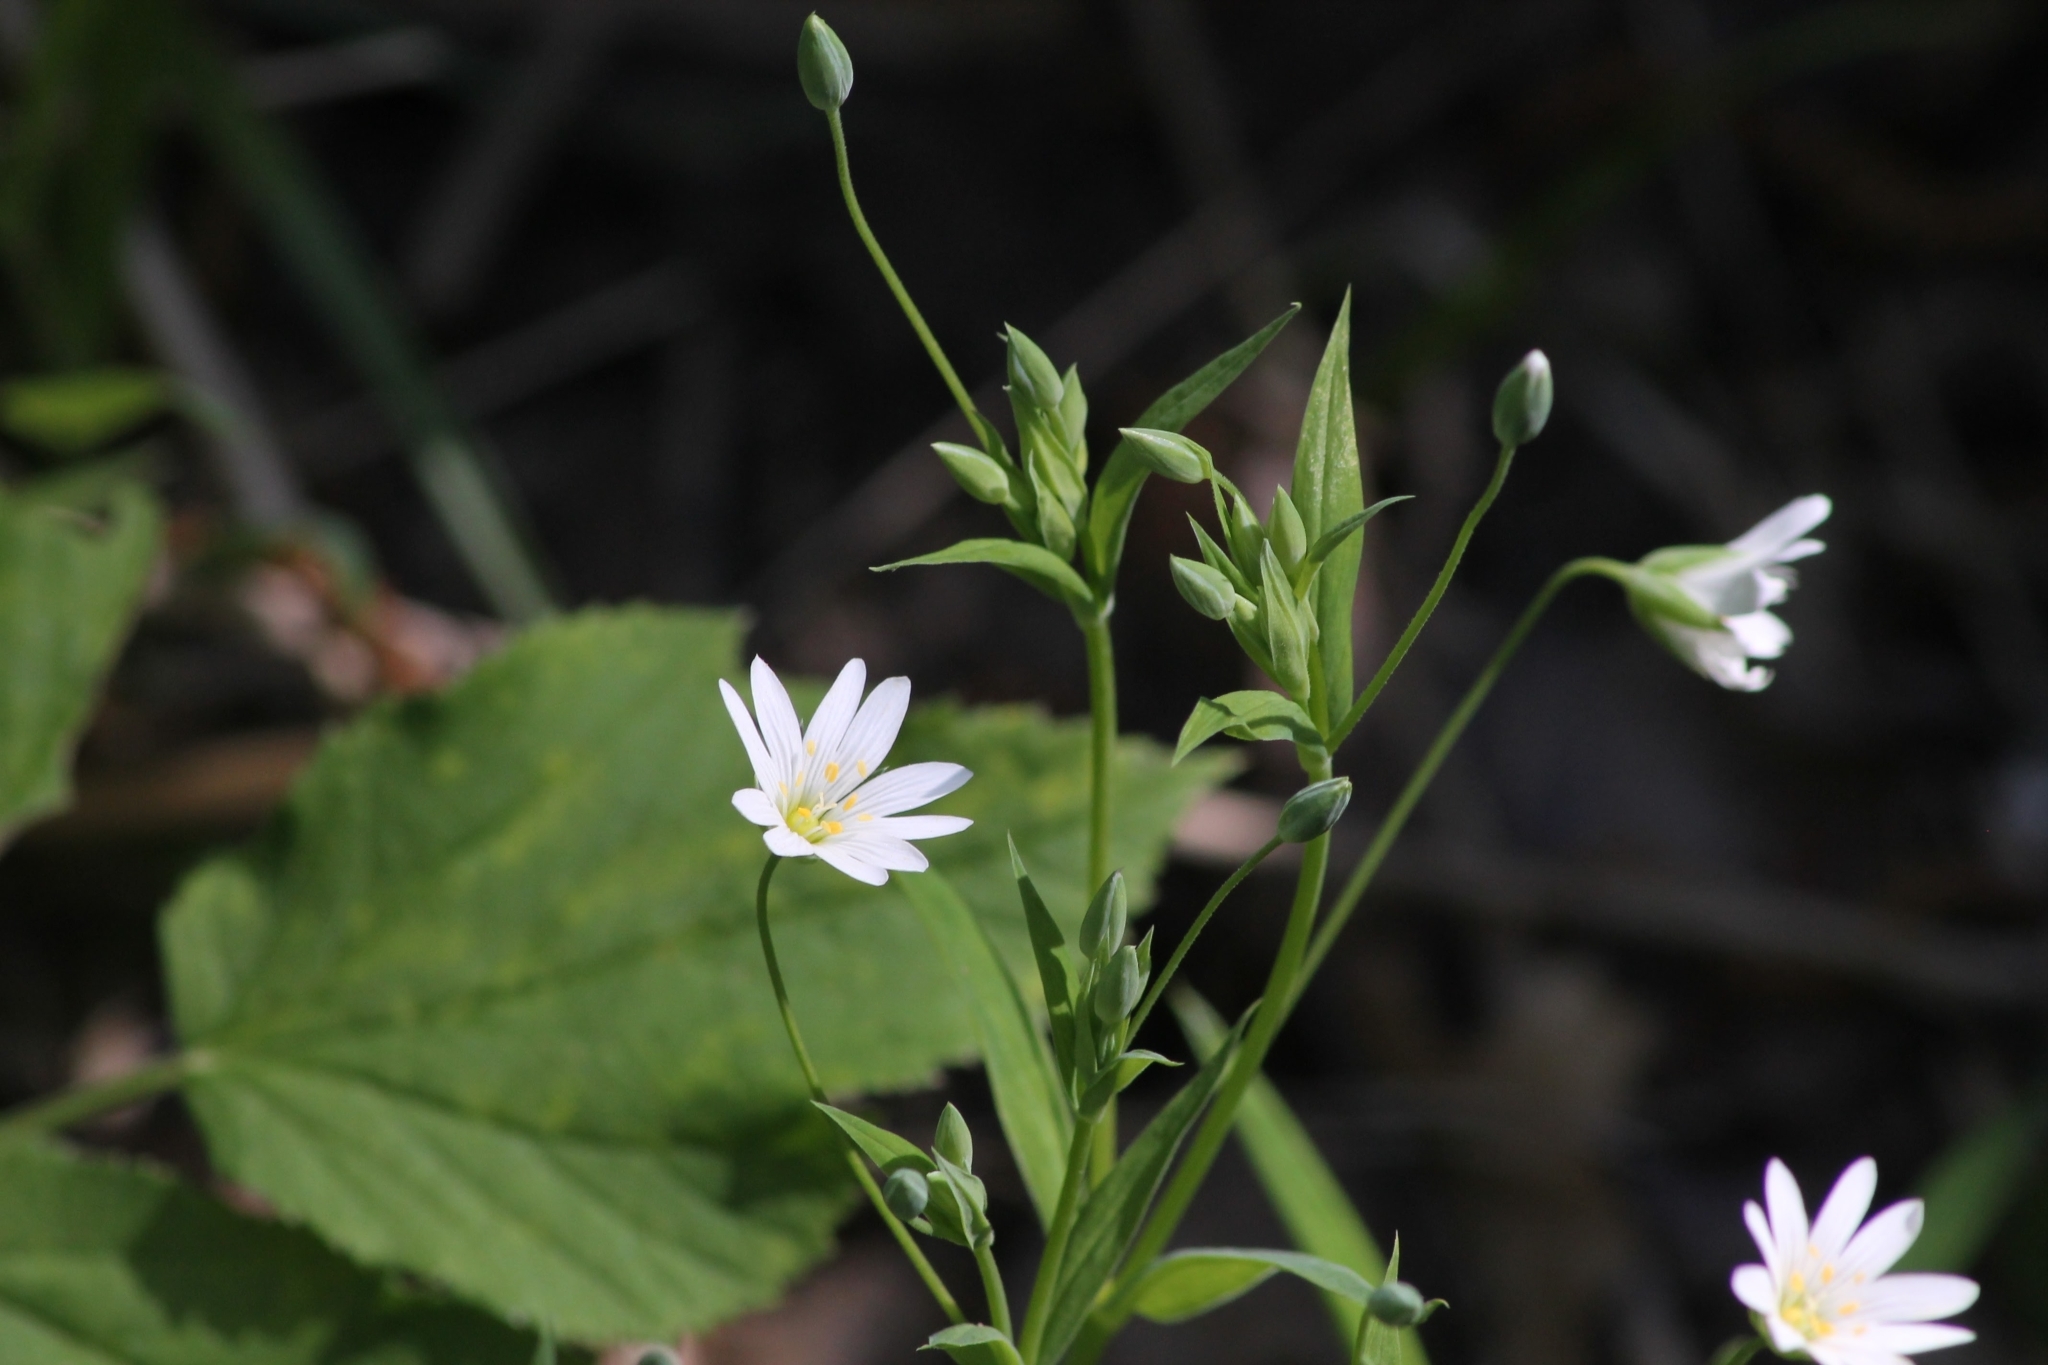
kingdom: Plantae
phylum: Tracheophyta
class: Magnoliopsida
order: Caryophyllales
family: Caryophyllaceae
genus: Rabelera
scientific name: Rabelera holostea
